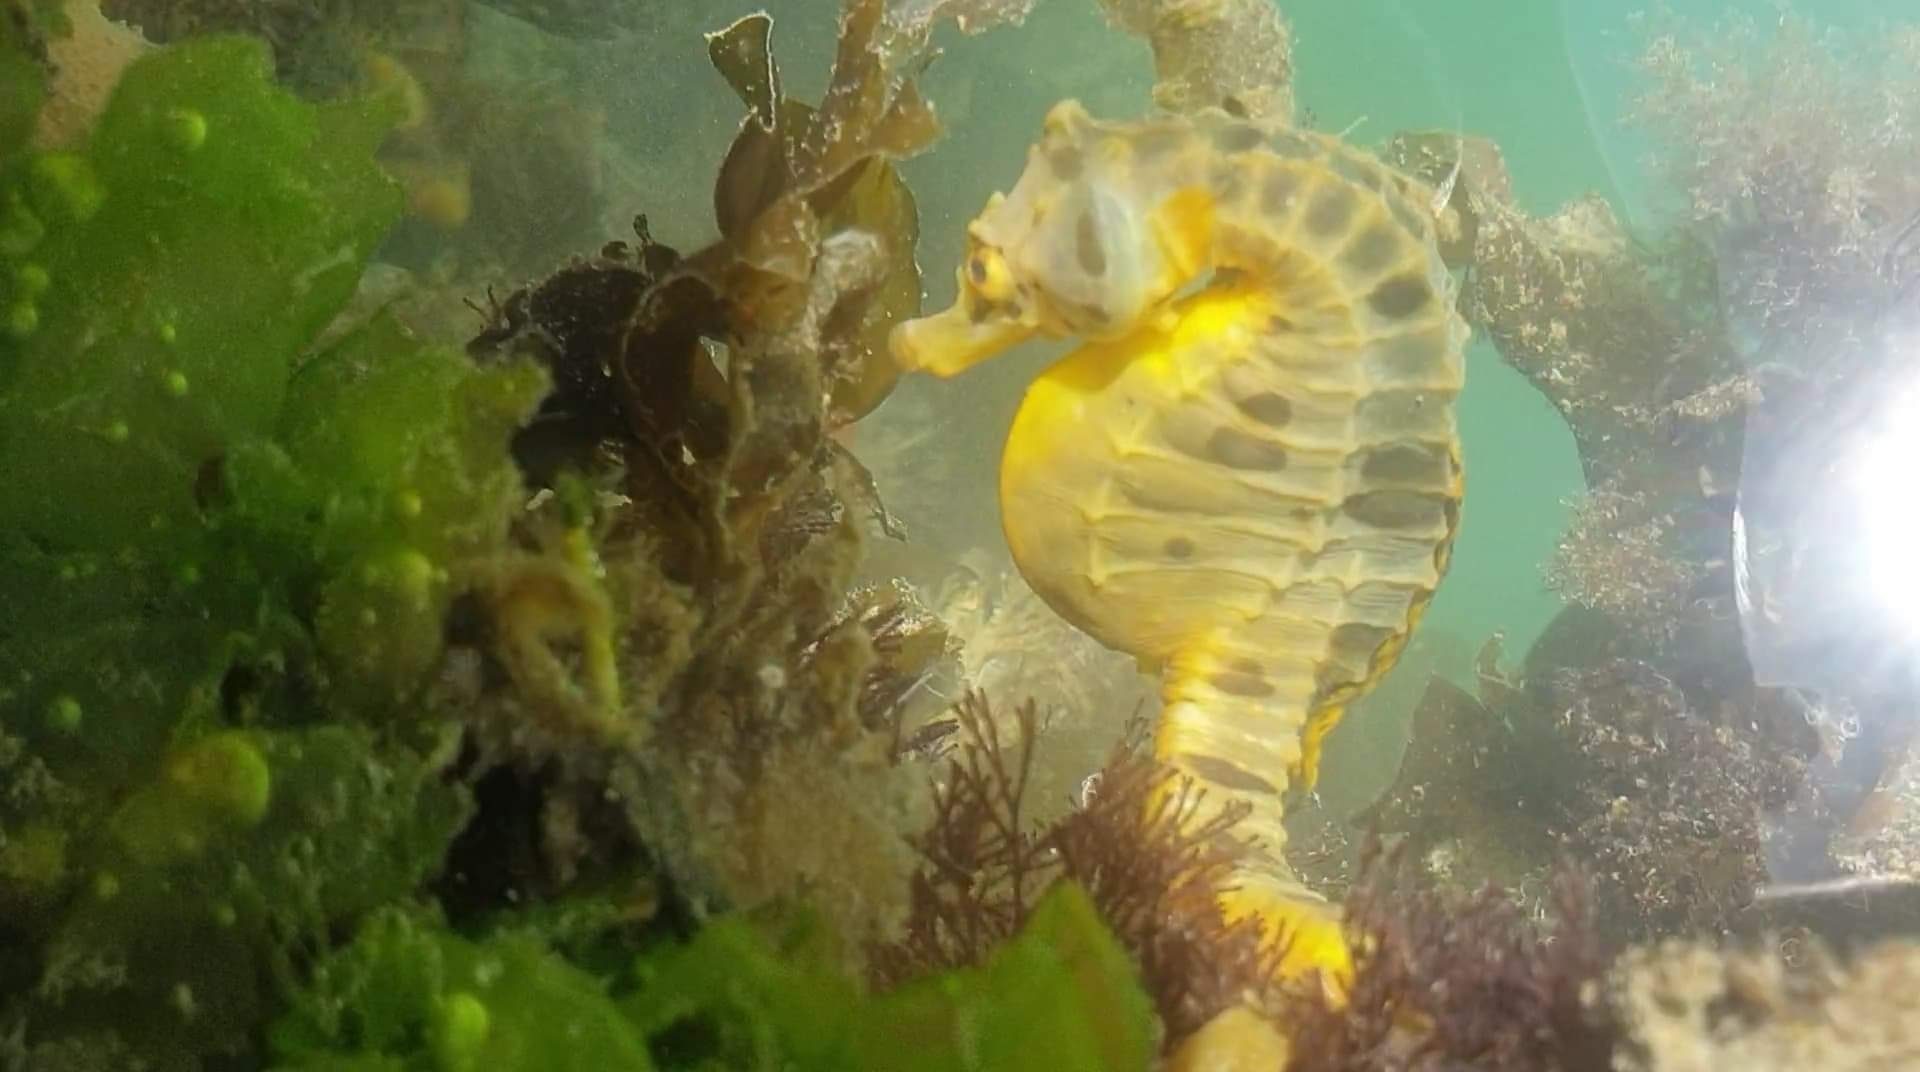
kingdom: Animalia
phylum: Chordata
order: Syngnathiformes
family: Syngnathidae
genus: Hippocampus
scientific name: Hippocampus abdominalis
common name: Big-belly seahorse
